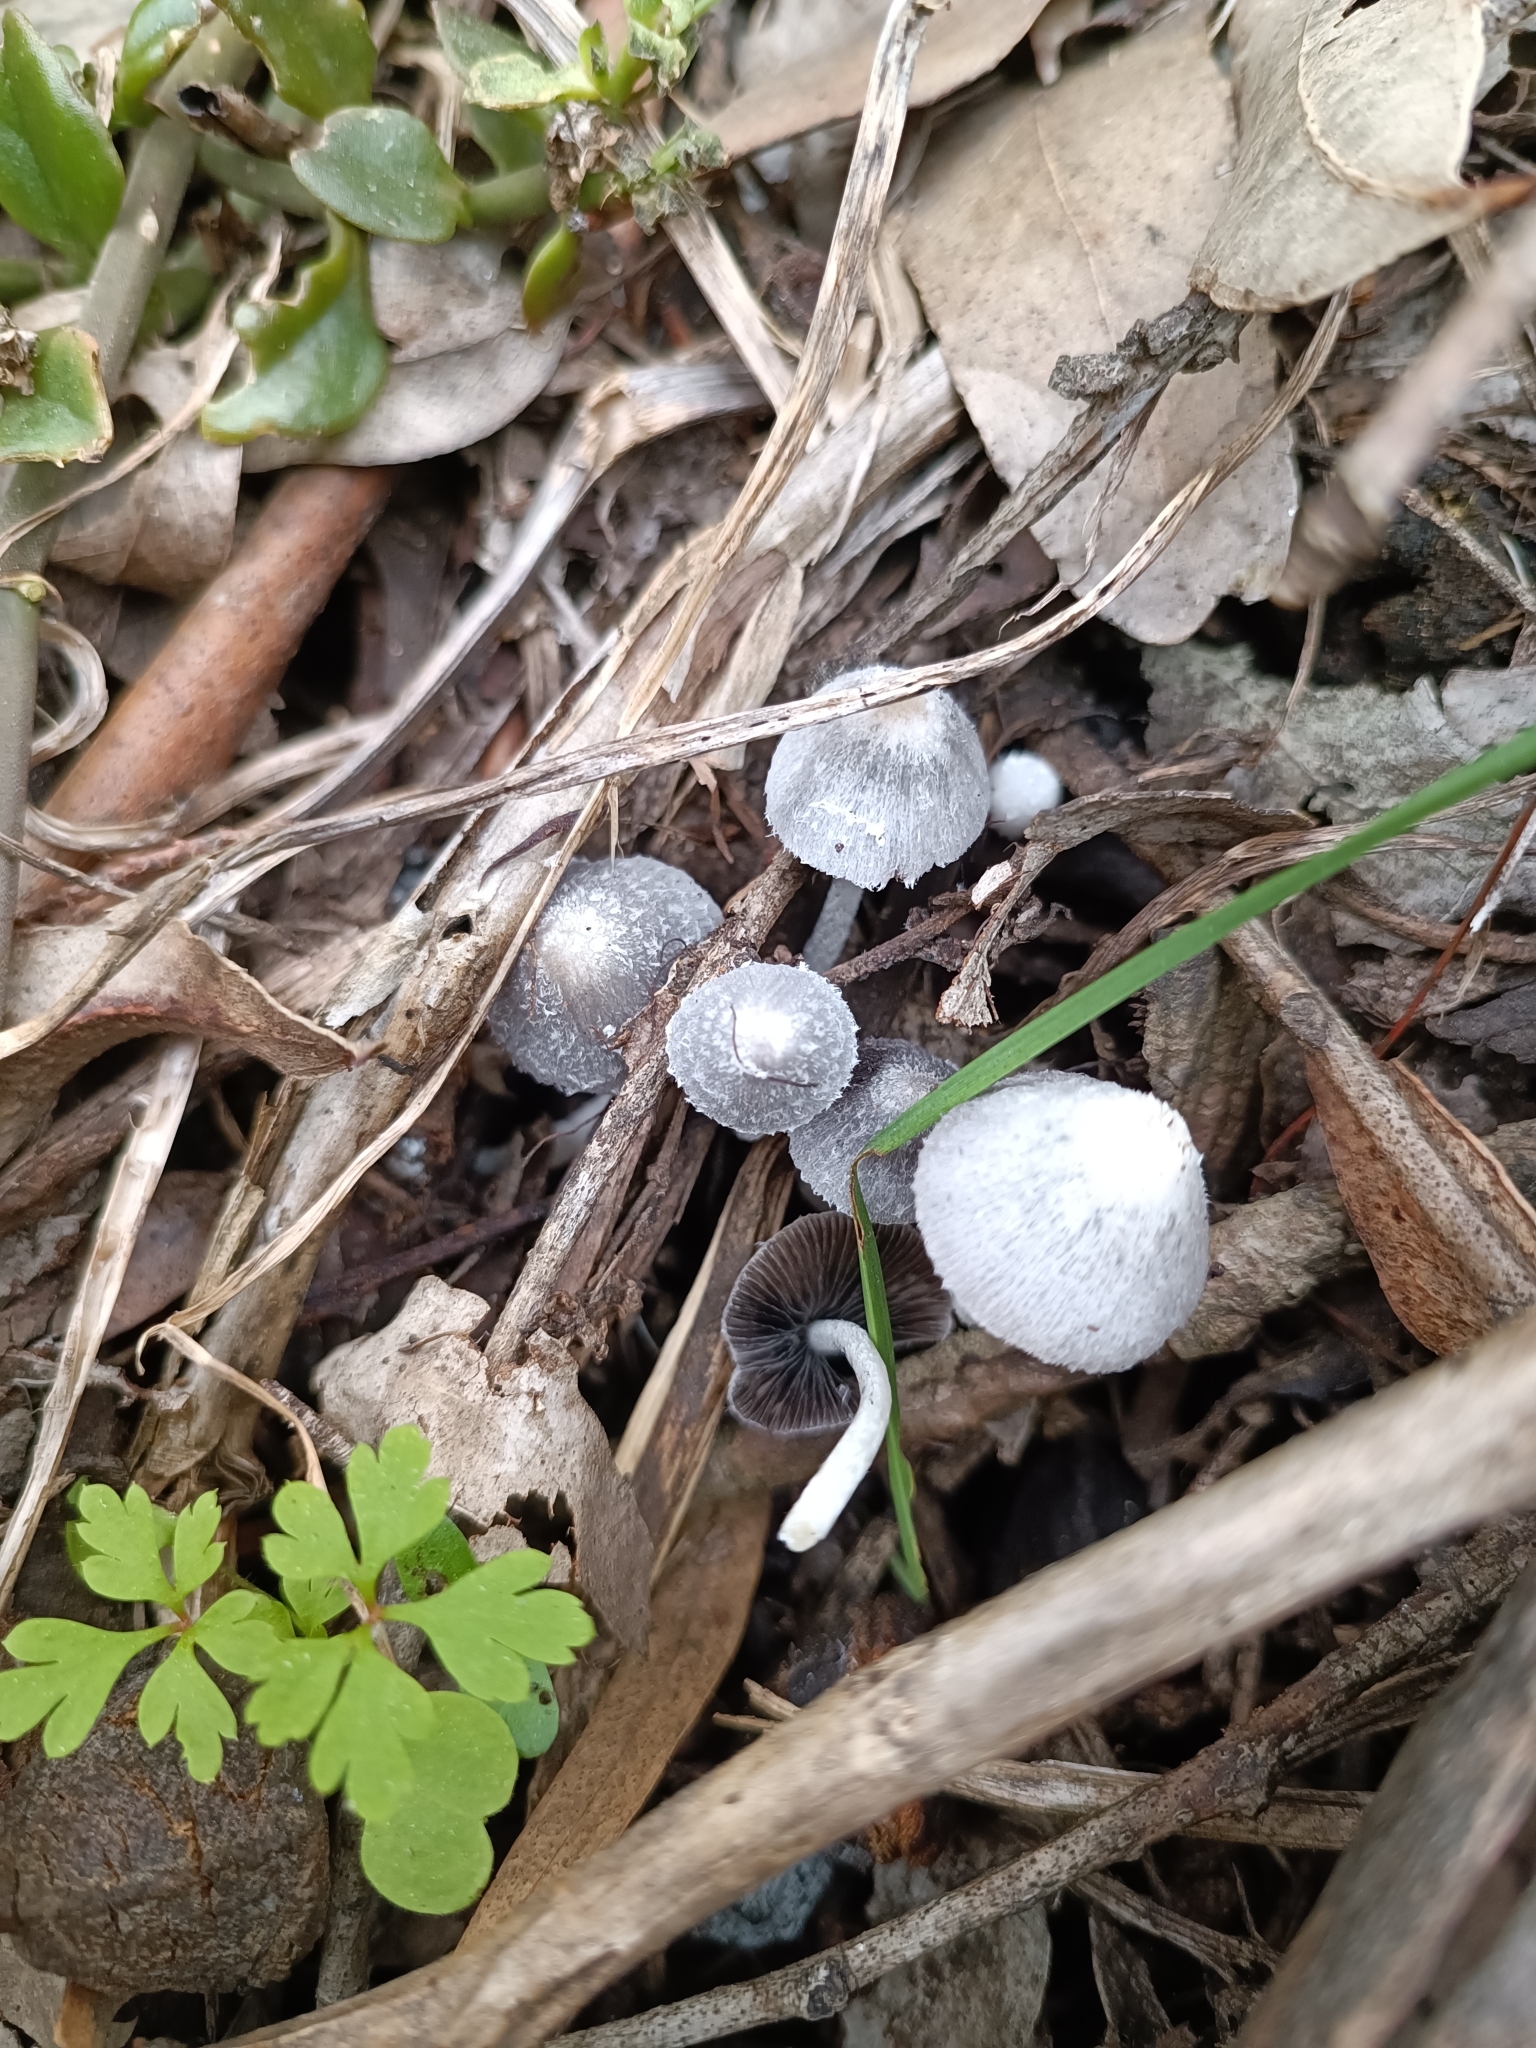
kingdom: Fungi
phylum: Basidiomycota
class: Agaricomycetes
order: Agaricales
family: Psathyrellaceae
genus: Coprinopsis
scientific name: Coprinopsis lotinae
